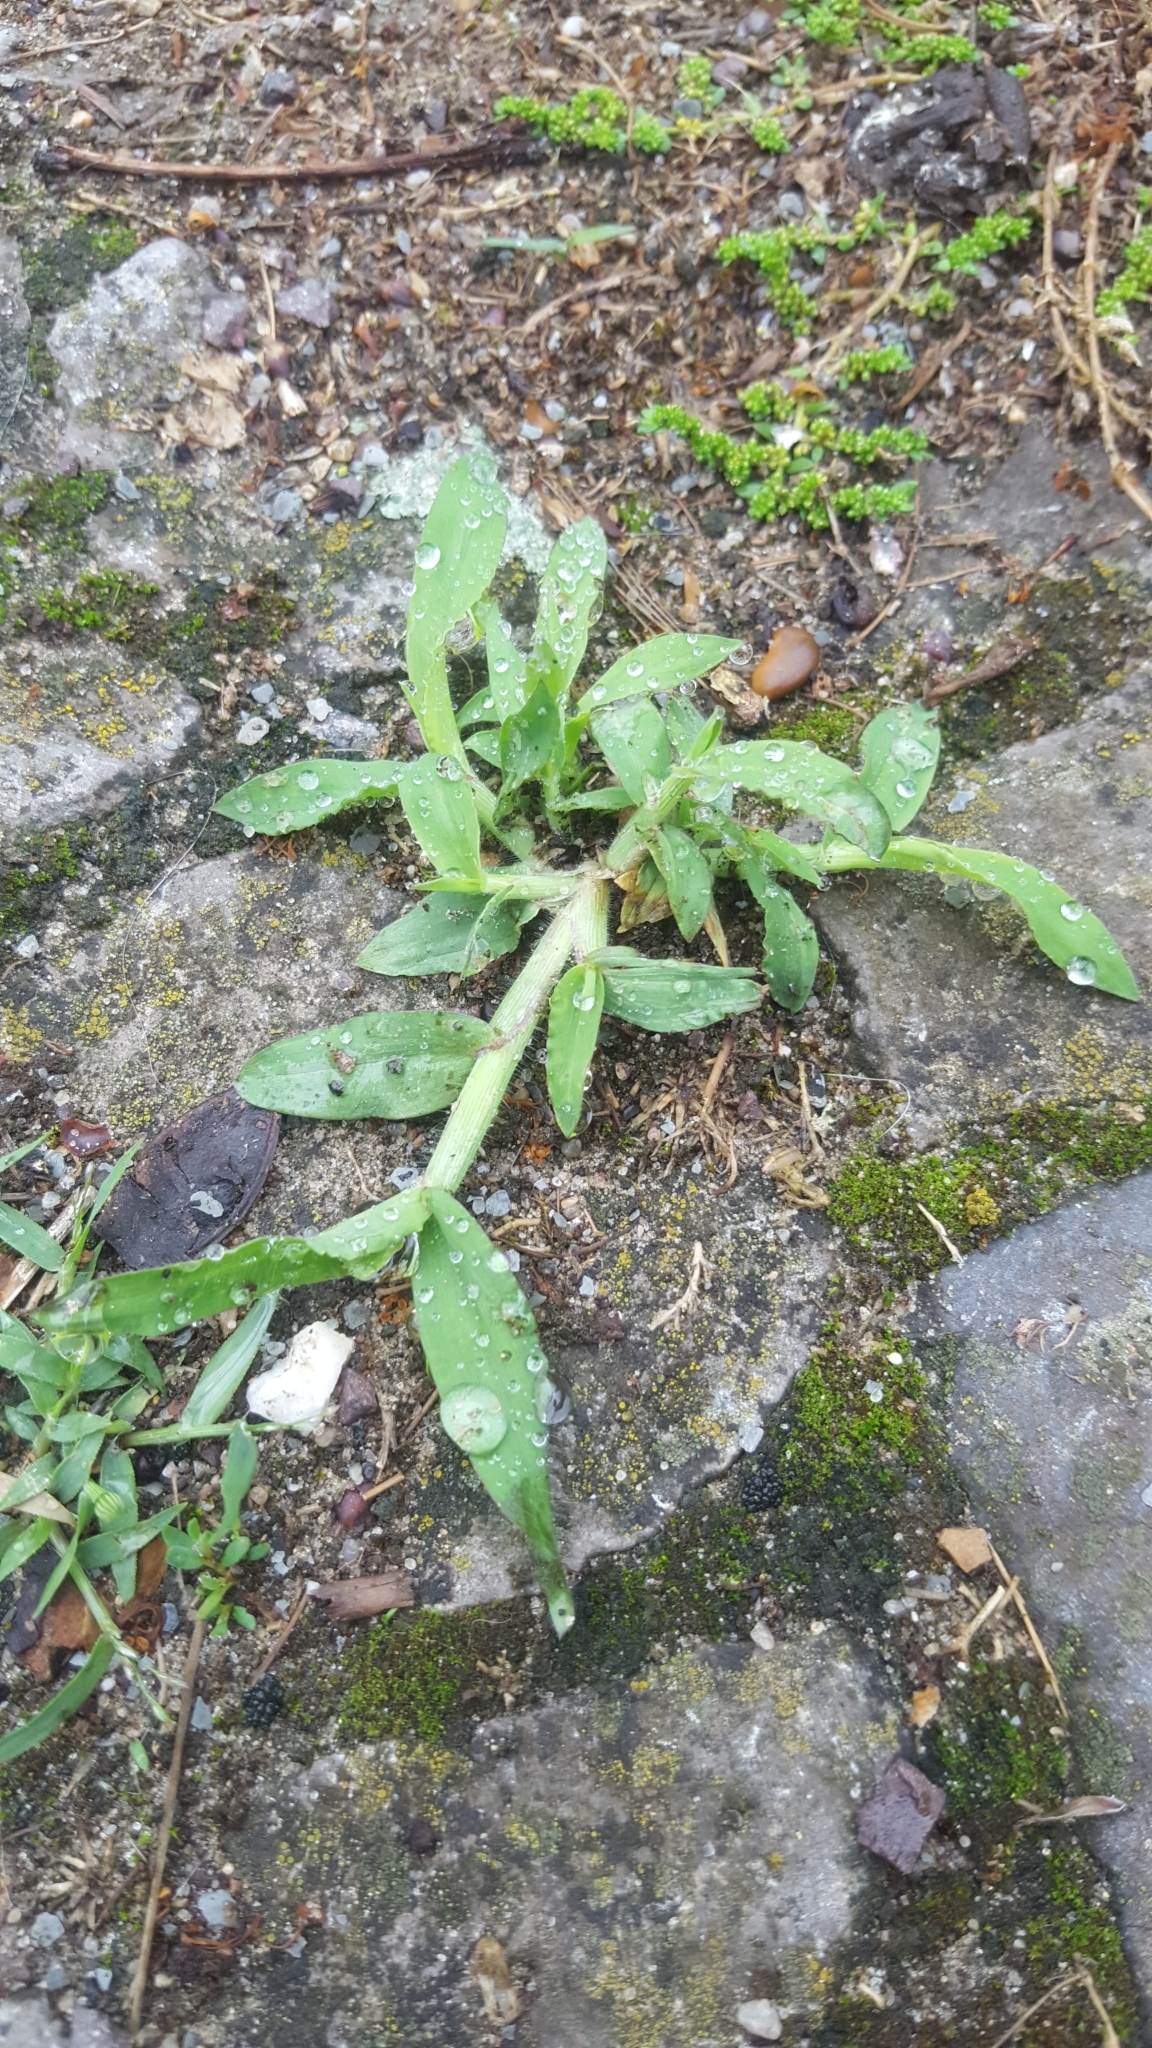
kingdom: Plantae
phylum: Tracheophyta
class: Liliopsida
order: Poales
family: Poaceae
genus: Digitaria
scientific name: Digitaria sanguinalis
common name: Hairy crabgrass
